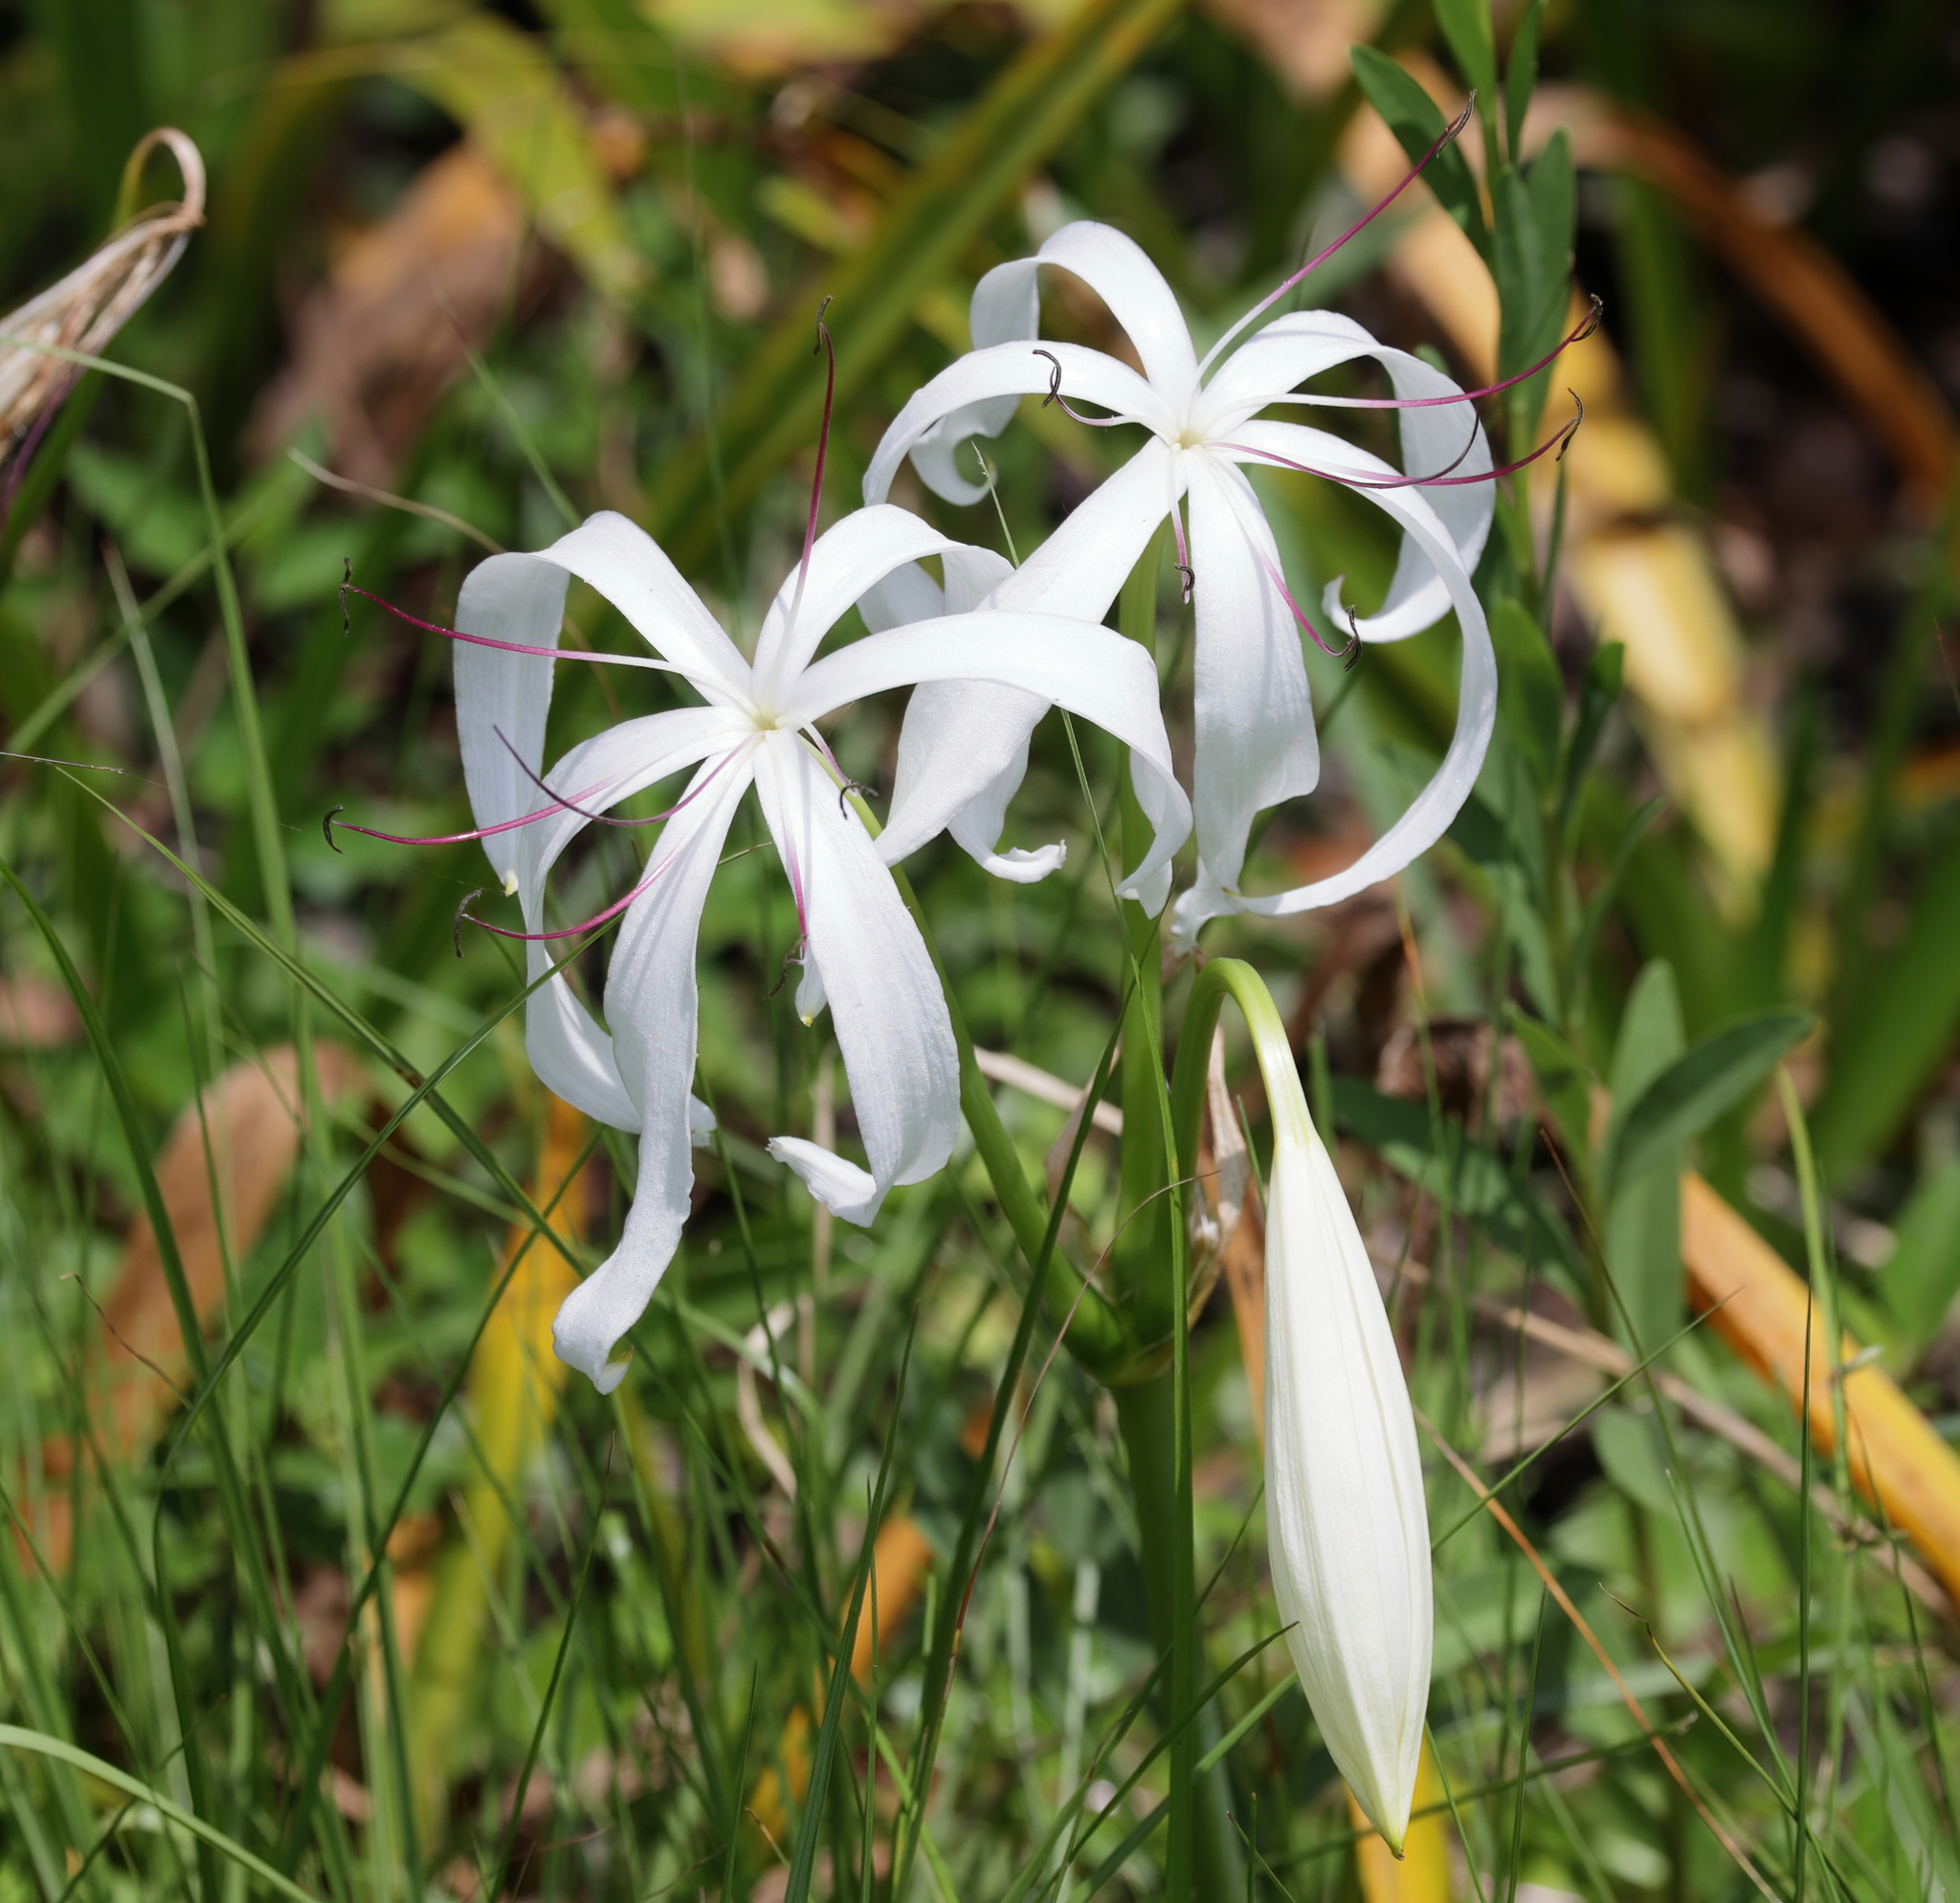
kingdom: Plantae
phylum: Tracheophyta
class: Liliopsida
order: Asparagales
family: Amaryllidaceae
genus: Crinum
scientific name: Crinum americanum
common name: Florida swamp-lily
